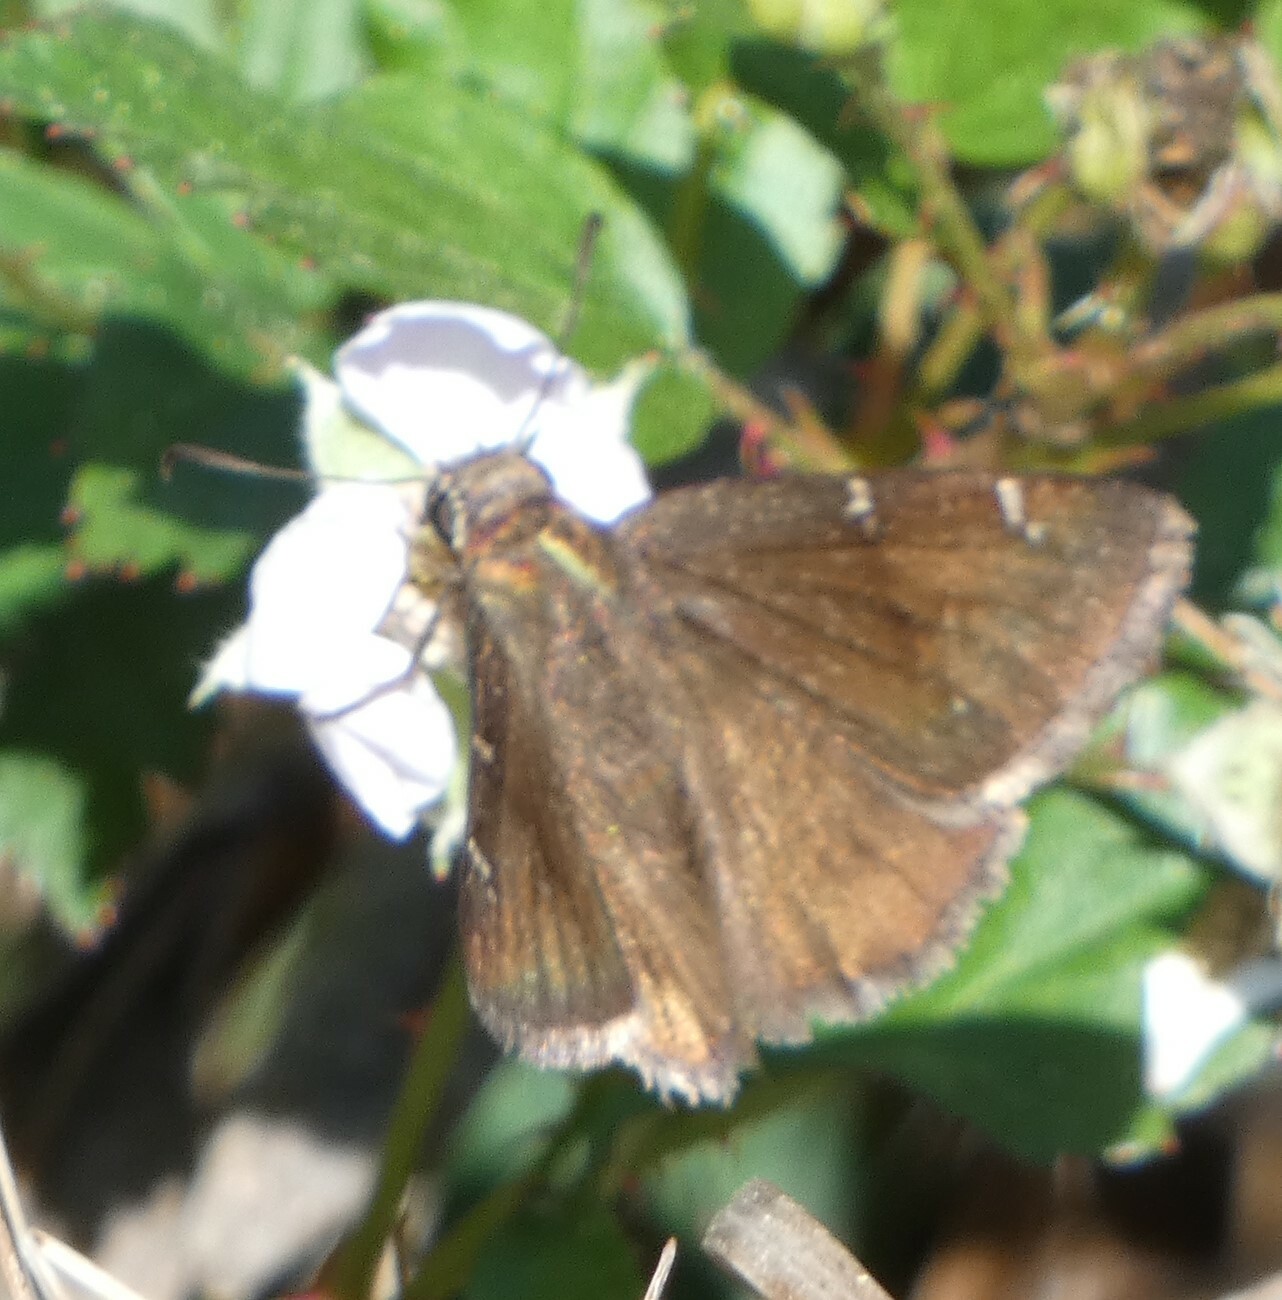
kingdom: Animalia
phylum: Arthropoda
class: Insecta
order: Lepidoptera
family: Hesperiidae
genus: Thorybes
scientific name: Thorybes mexicana
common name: Mexican cloudywing
